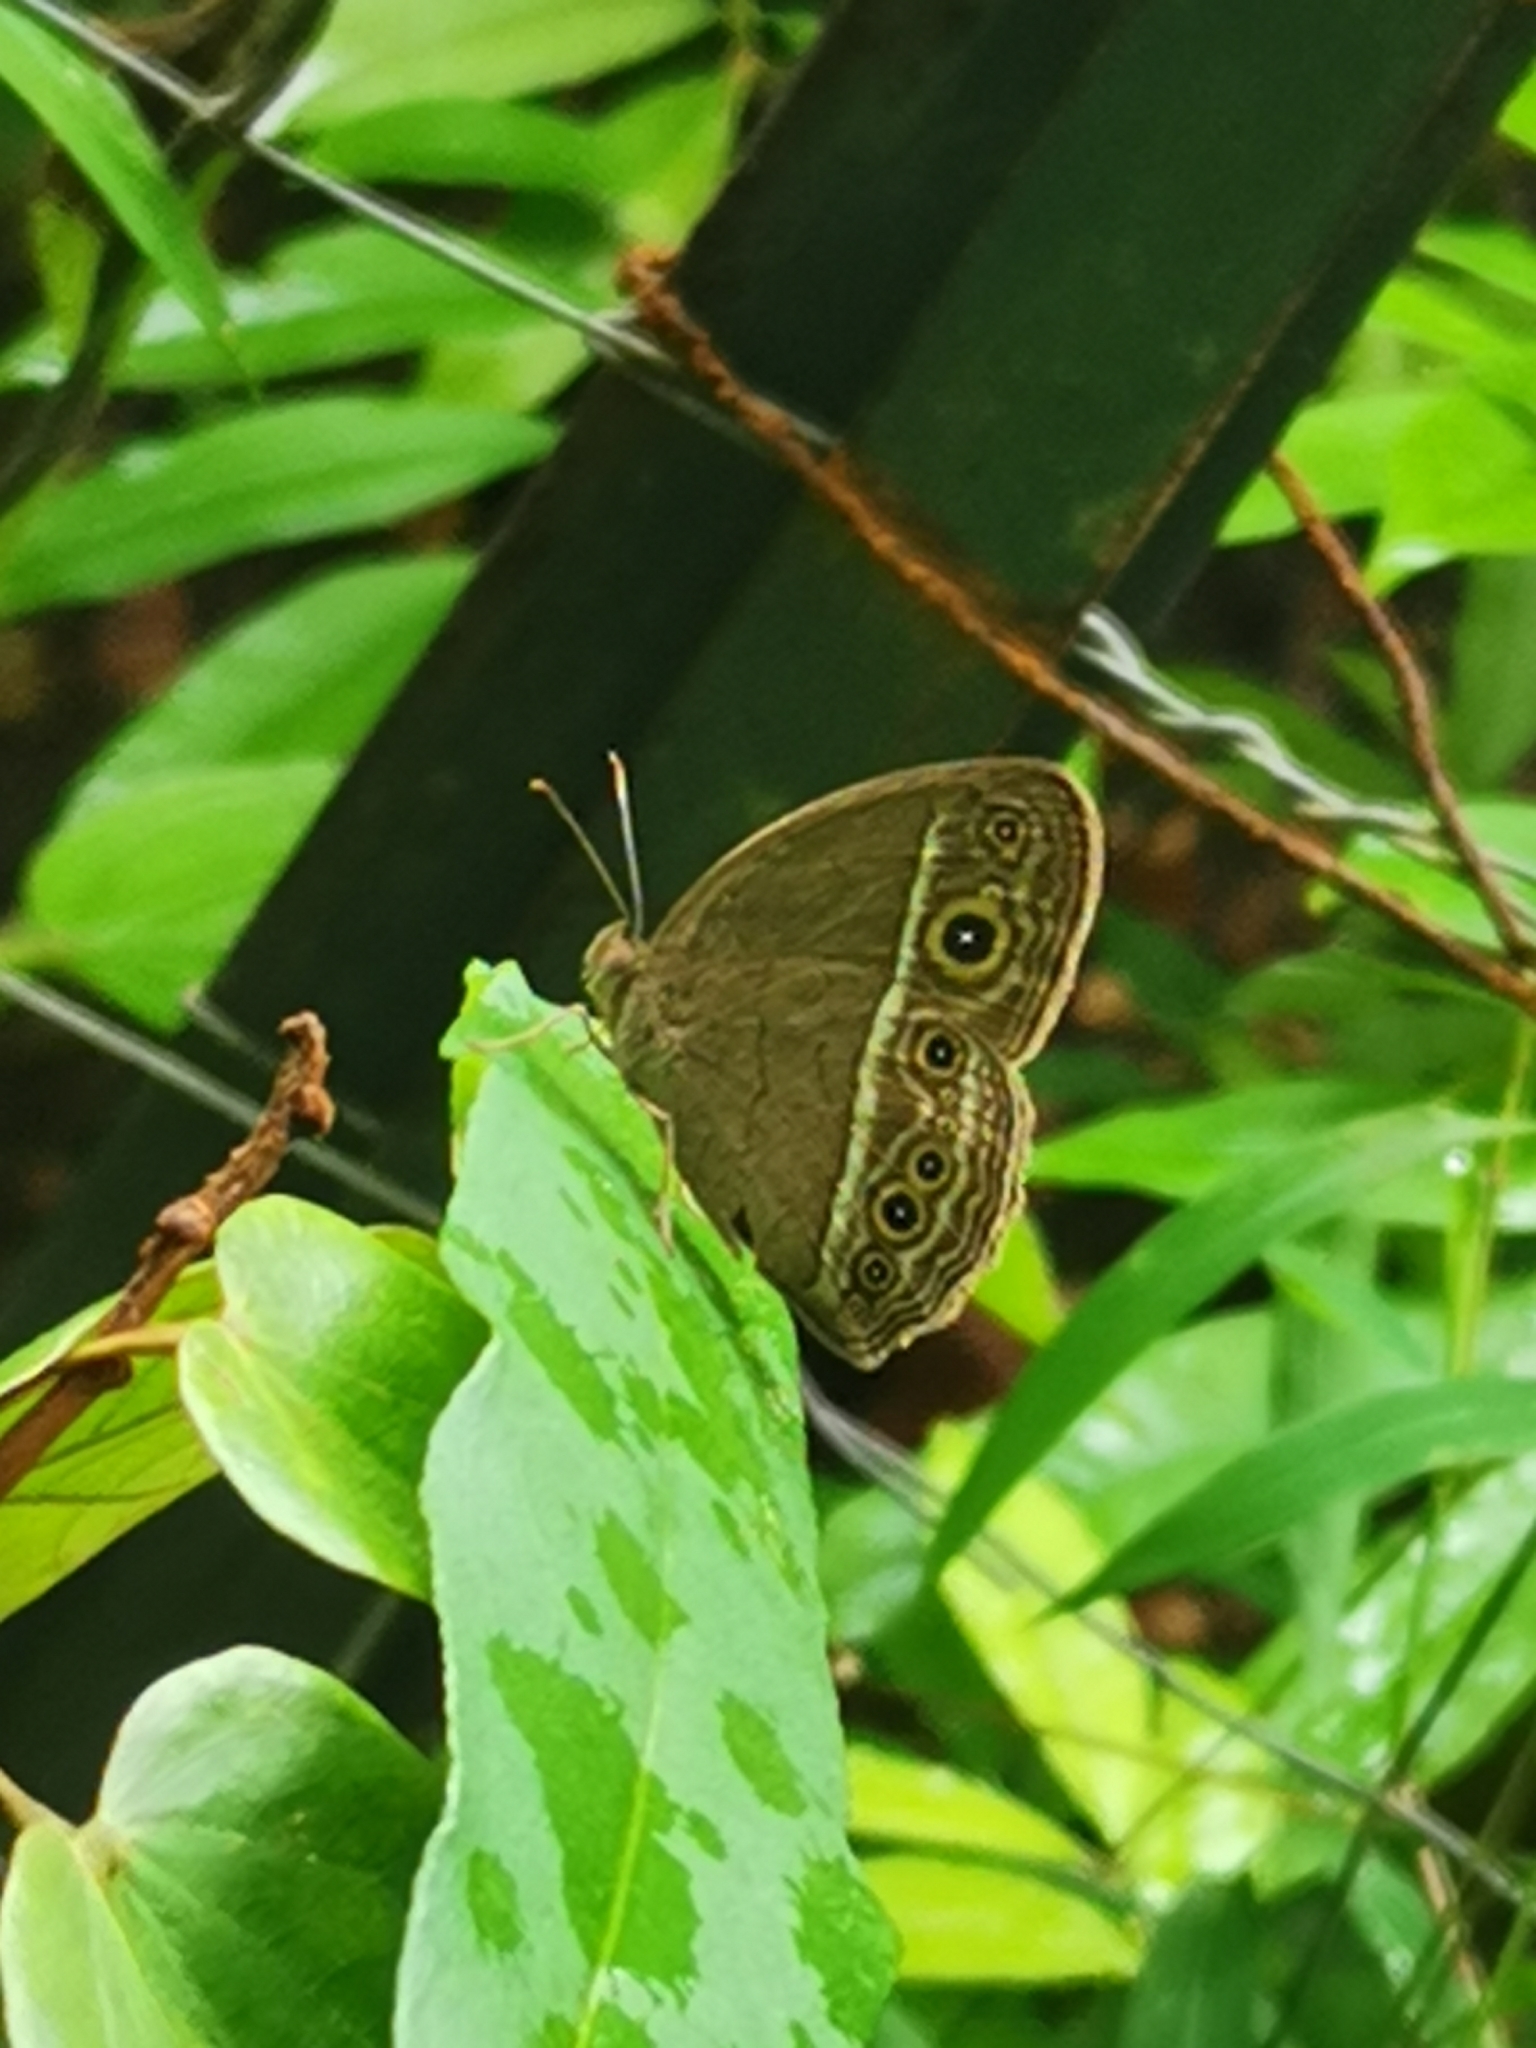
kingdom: Animalia
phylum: Arthropoda
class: Insecta
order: Lepidoptera
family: Nymphalidae
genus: Mycalesis
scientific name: Mycalesis visala
